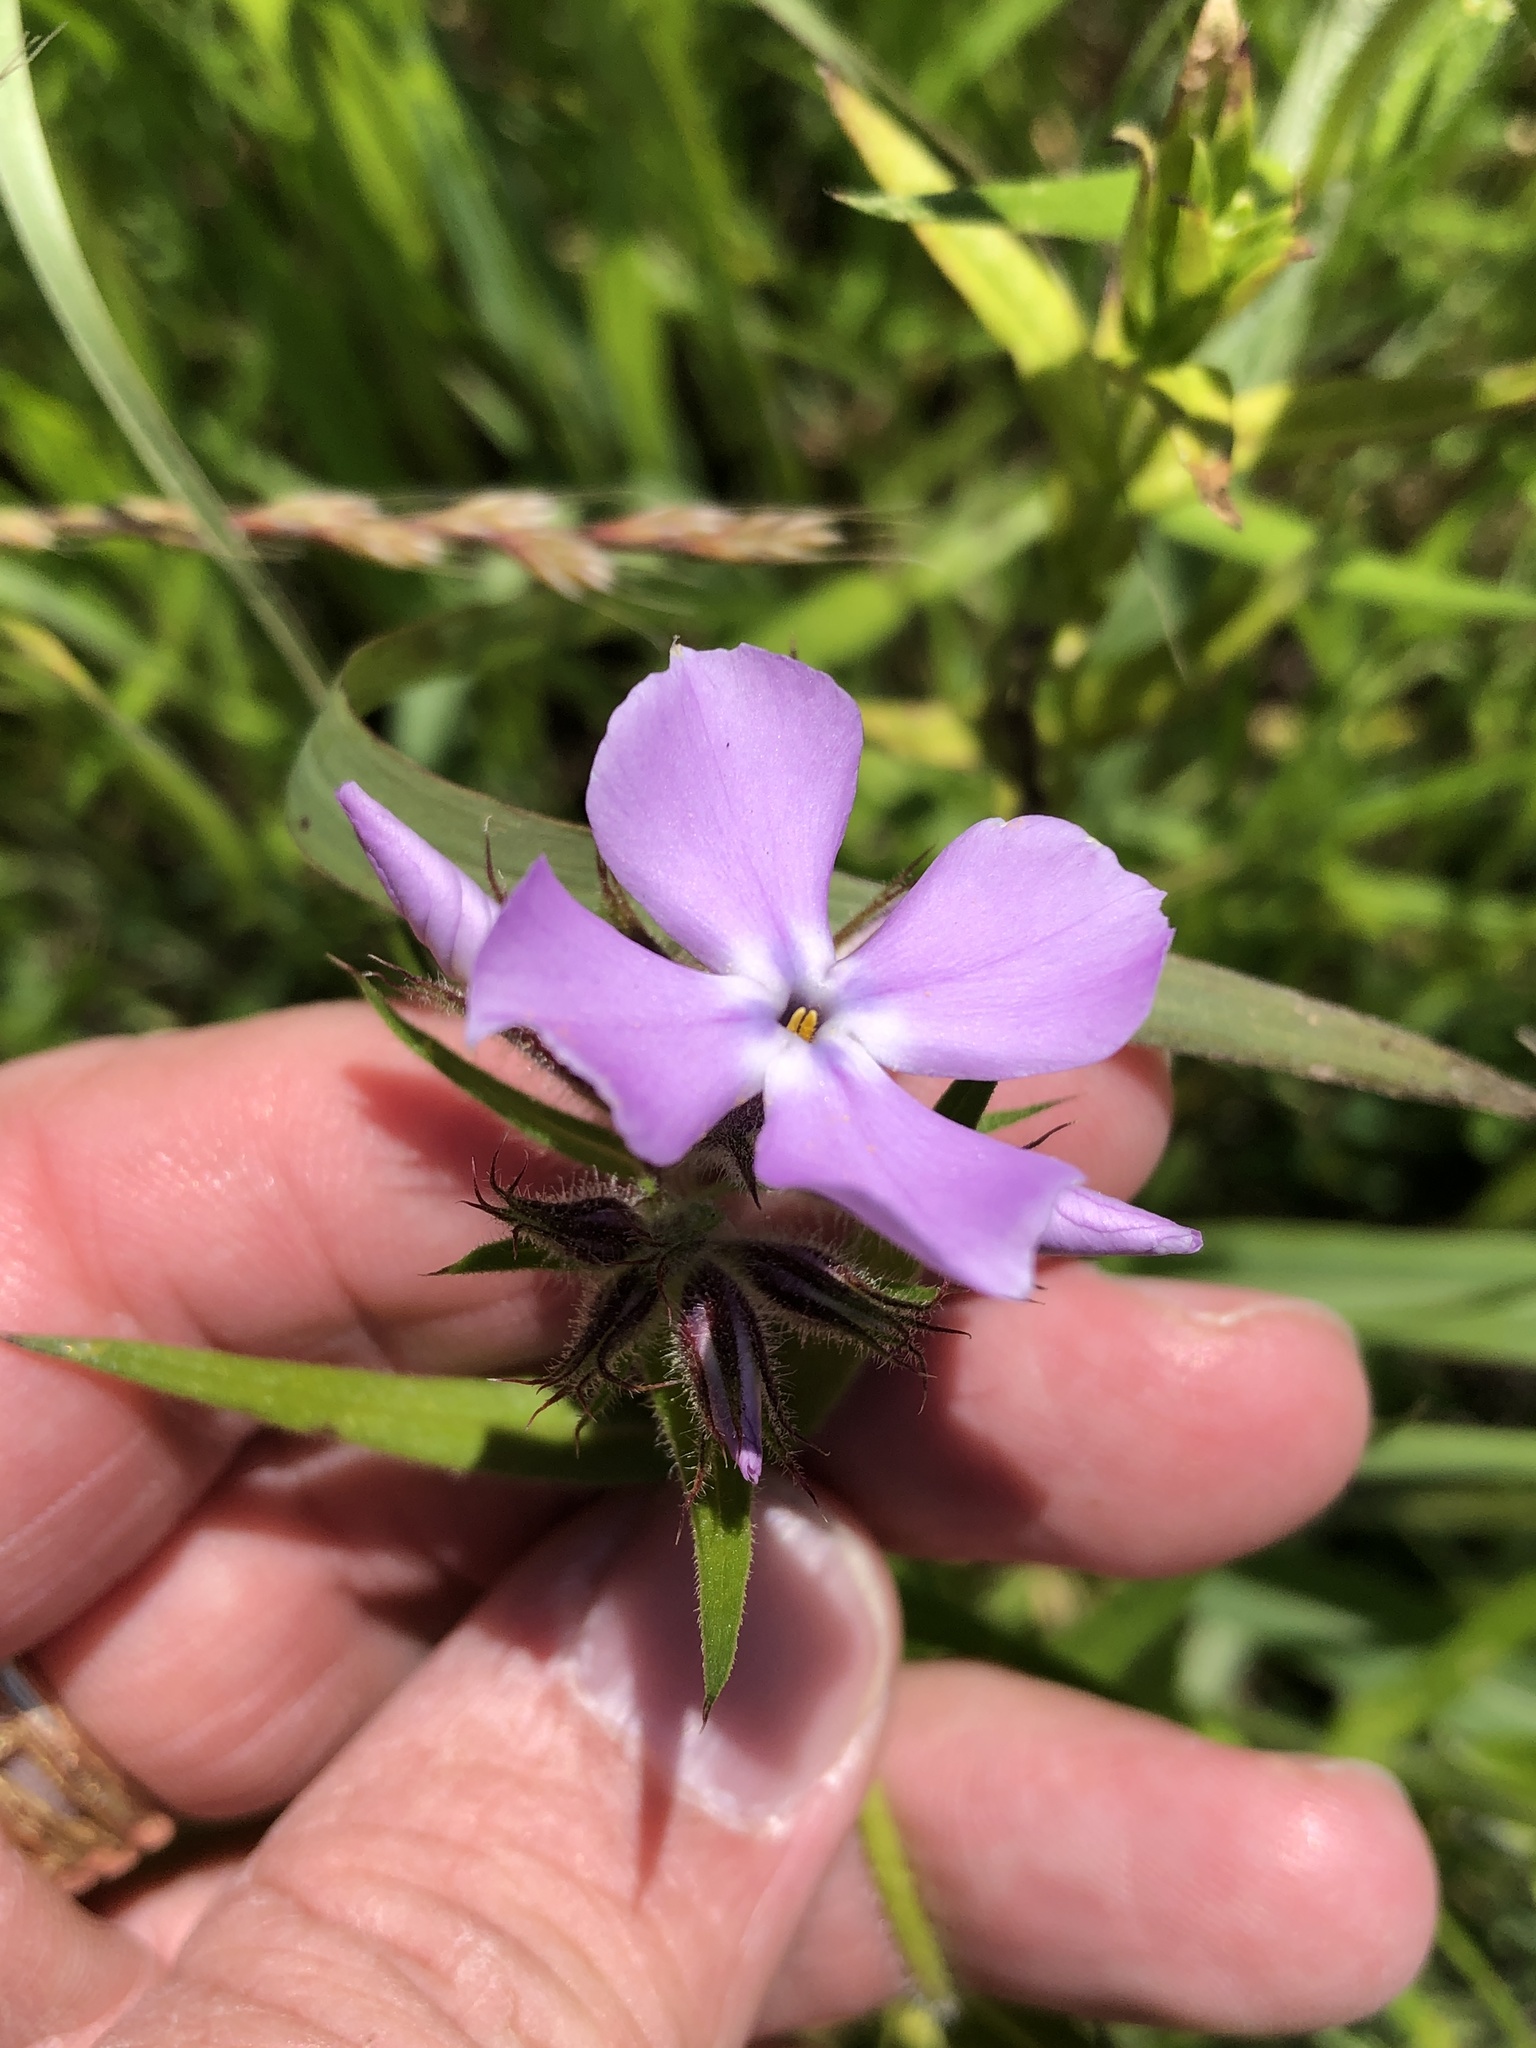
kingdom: Plantae
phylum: Tracheophyta
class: Magnoliopsida
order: Ericales
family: Polemoniaceae
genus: Phlox
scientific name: Phlox pilosa
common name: Prairie phlox
